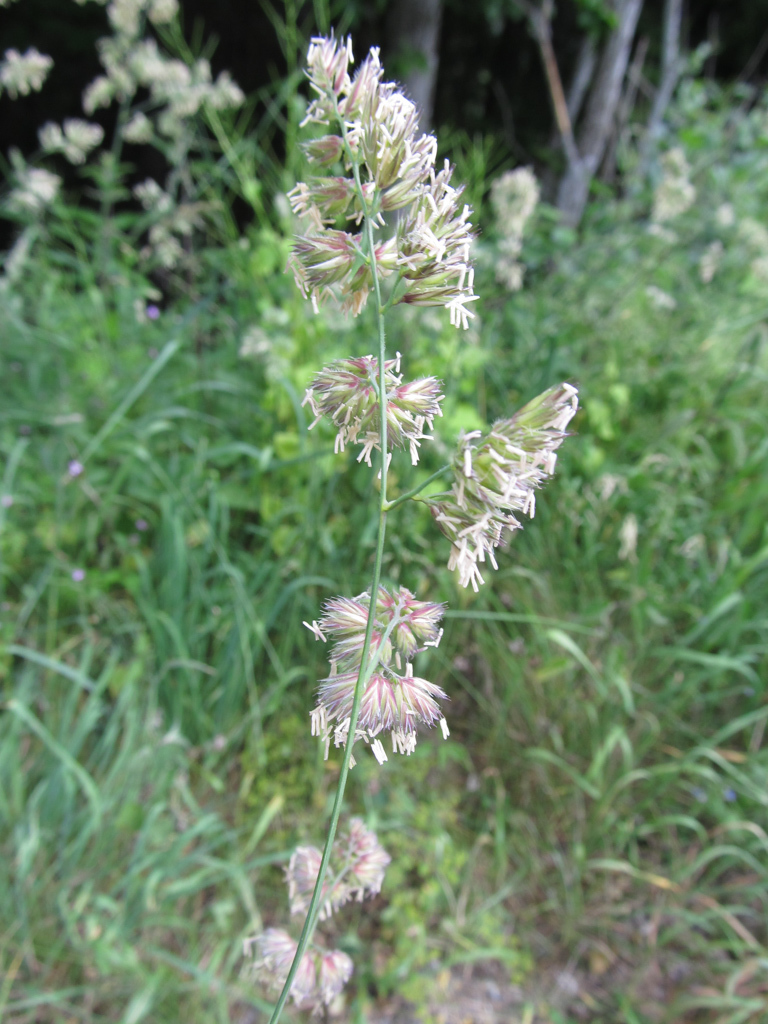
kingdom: Plantae
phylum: Tracheophyta
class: Liliopsida
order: Poales
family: Poaceae
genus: Dactylis
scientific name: Dactylis glomerata
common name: Orchardgrass
